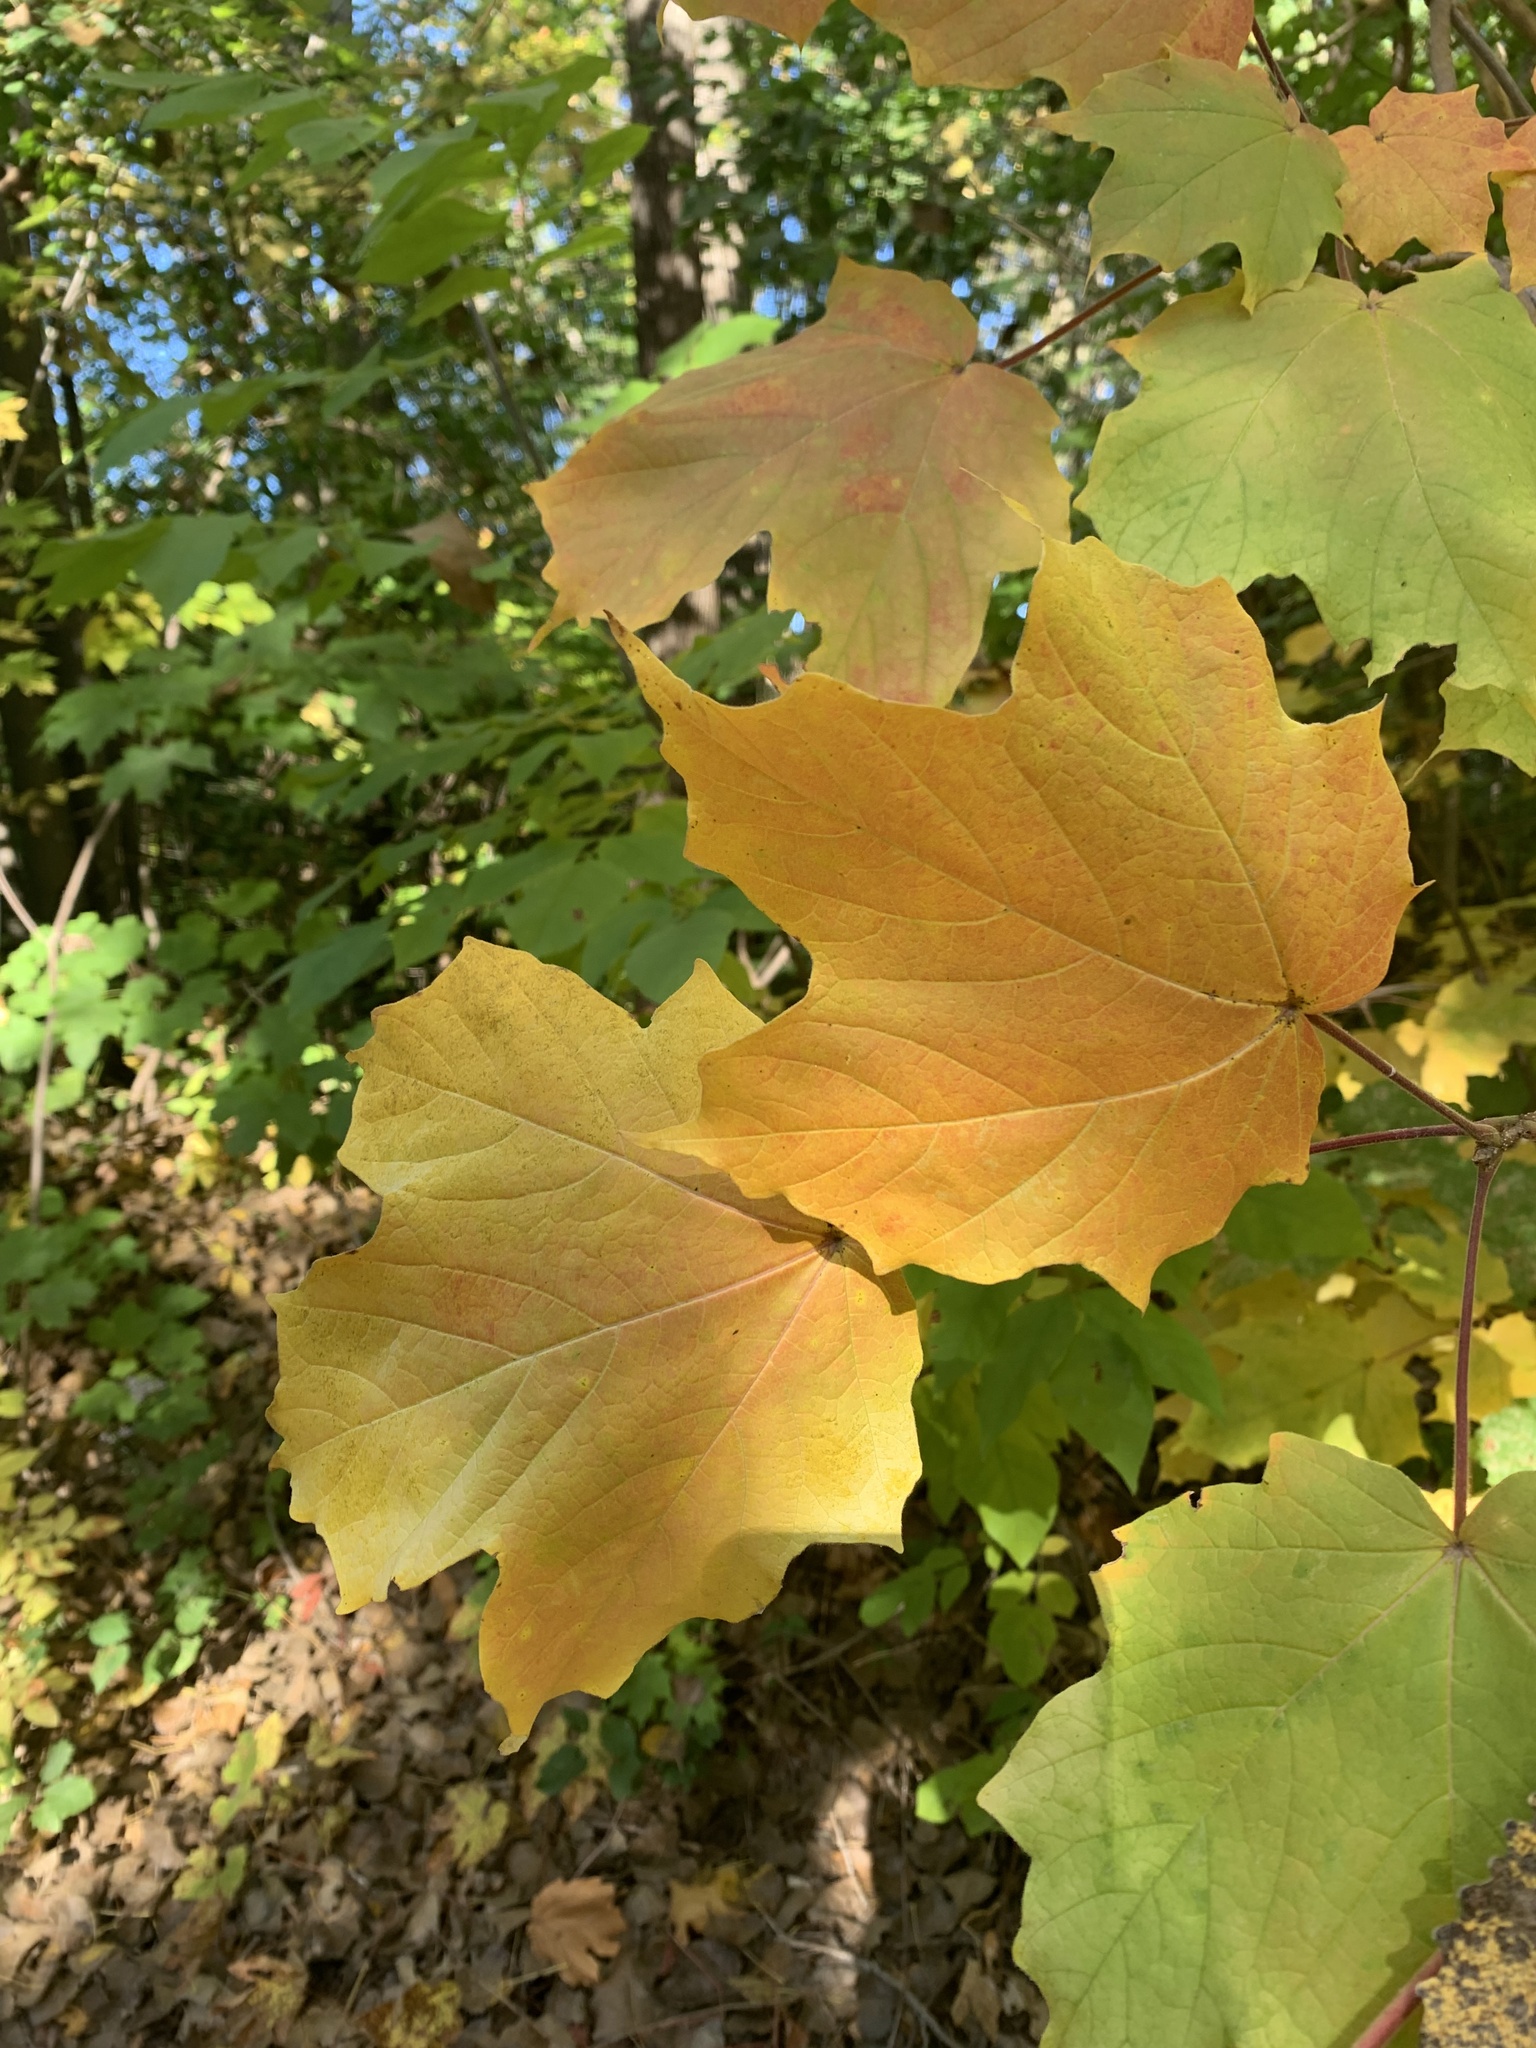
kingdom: Plantae
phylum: Tracheophyta
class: Magnoliopsida
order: Sapindales
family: Sapindaceae
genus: Acer
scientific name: Acer nigrum
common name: Black maple
